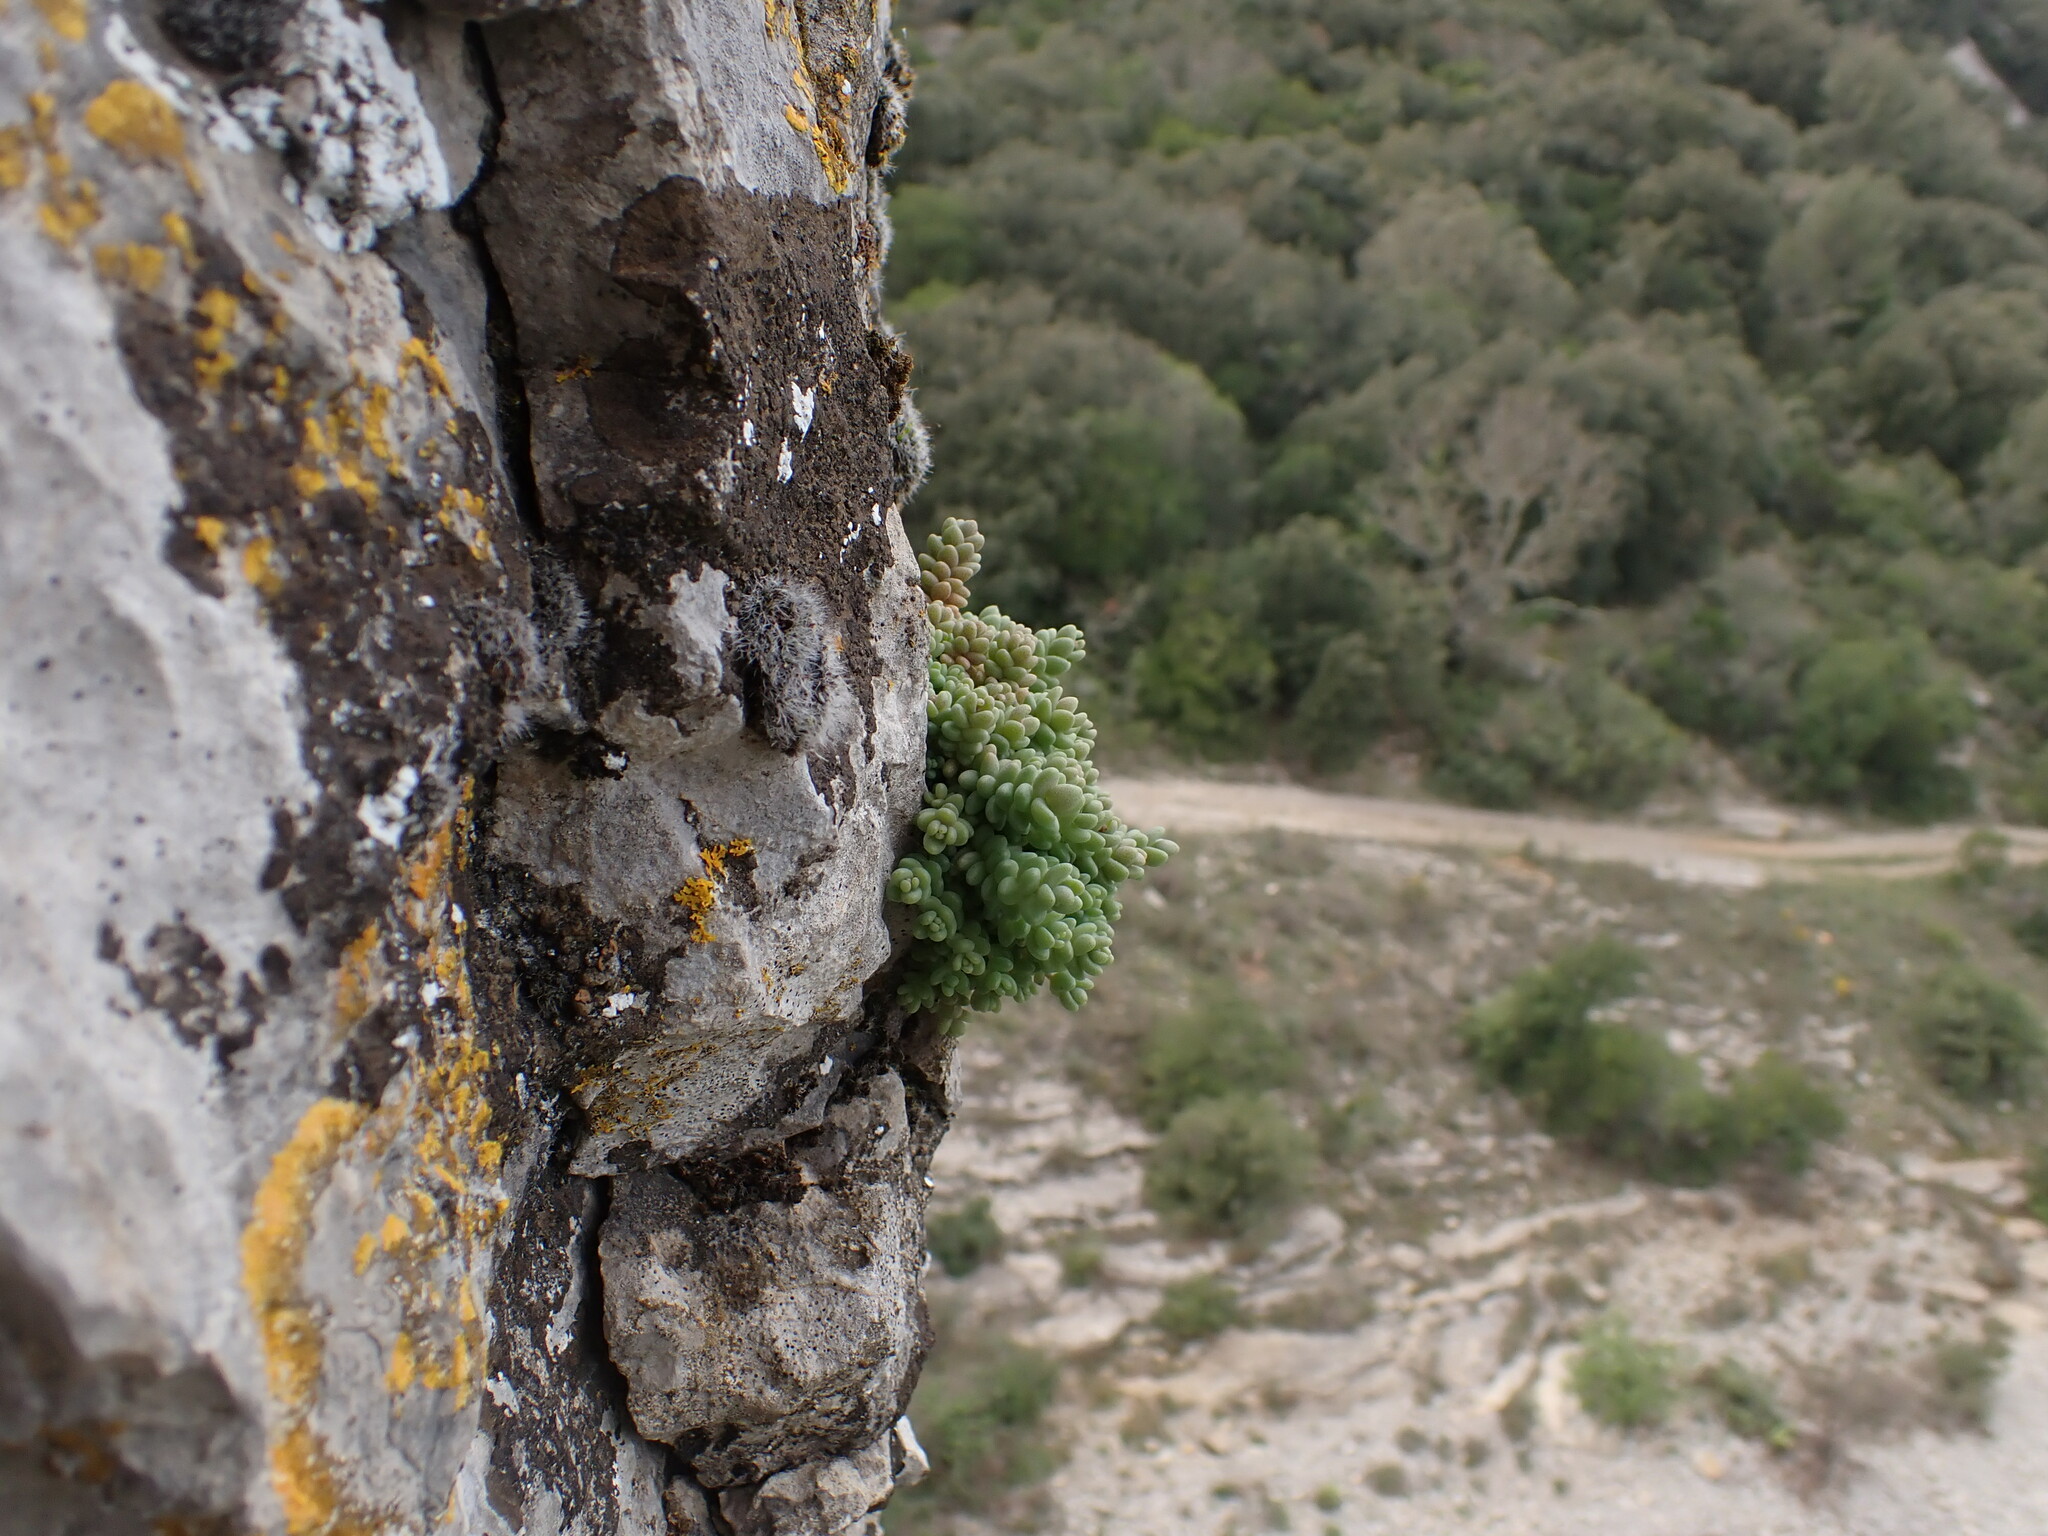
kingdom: Plantae
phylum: Tracheophyta
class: Magnoliopsida
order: Saxifragales
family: Crassulaceae
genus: Sedum
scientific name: Sedum dasyphyllum
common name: Thick-leaf stonecrop
